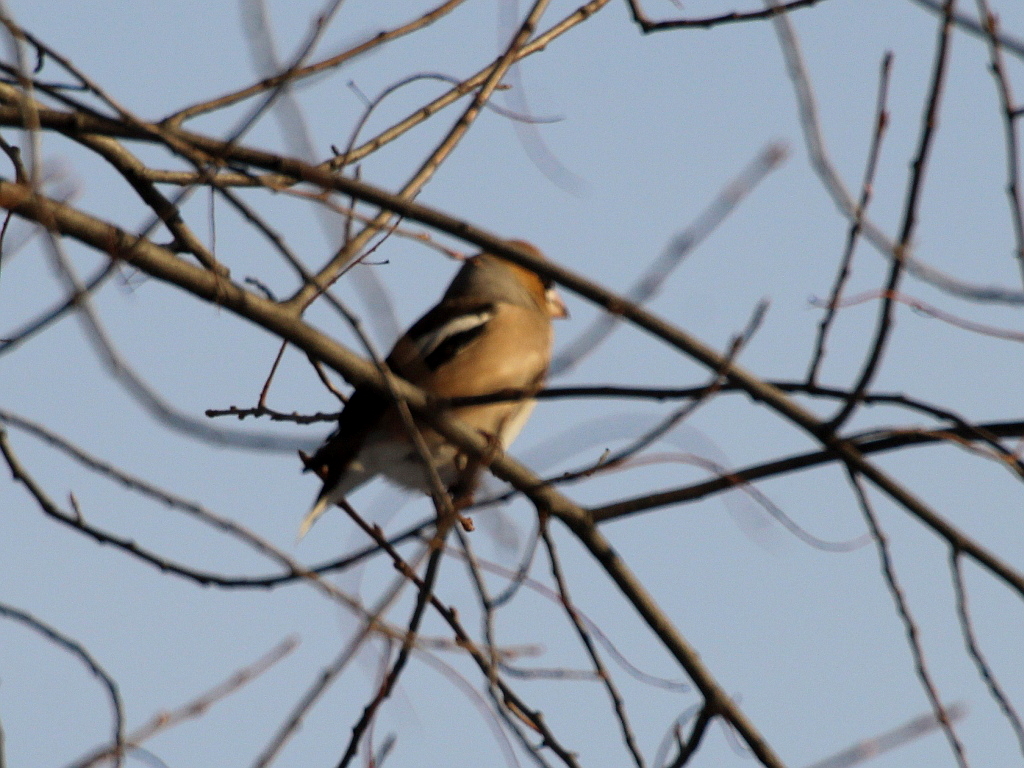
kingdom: Animalia
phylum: Chordata
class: Aves
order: Passeriformes
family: Fringillidae
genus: Coccothraustes
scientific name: Coccothraustes coccothraustes
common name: Hawfinch
